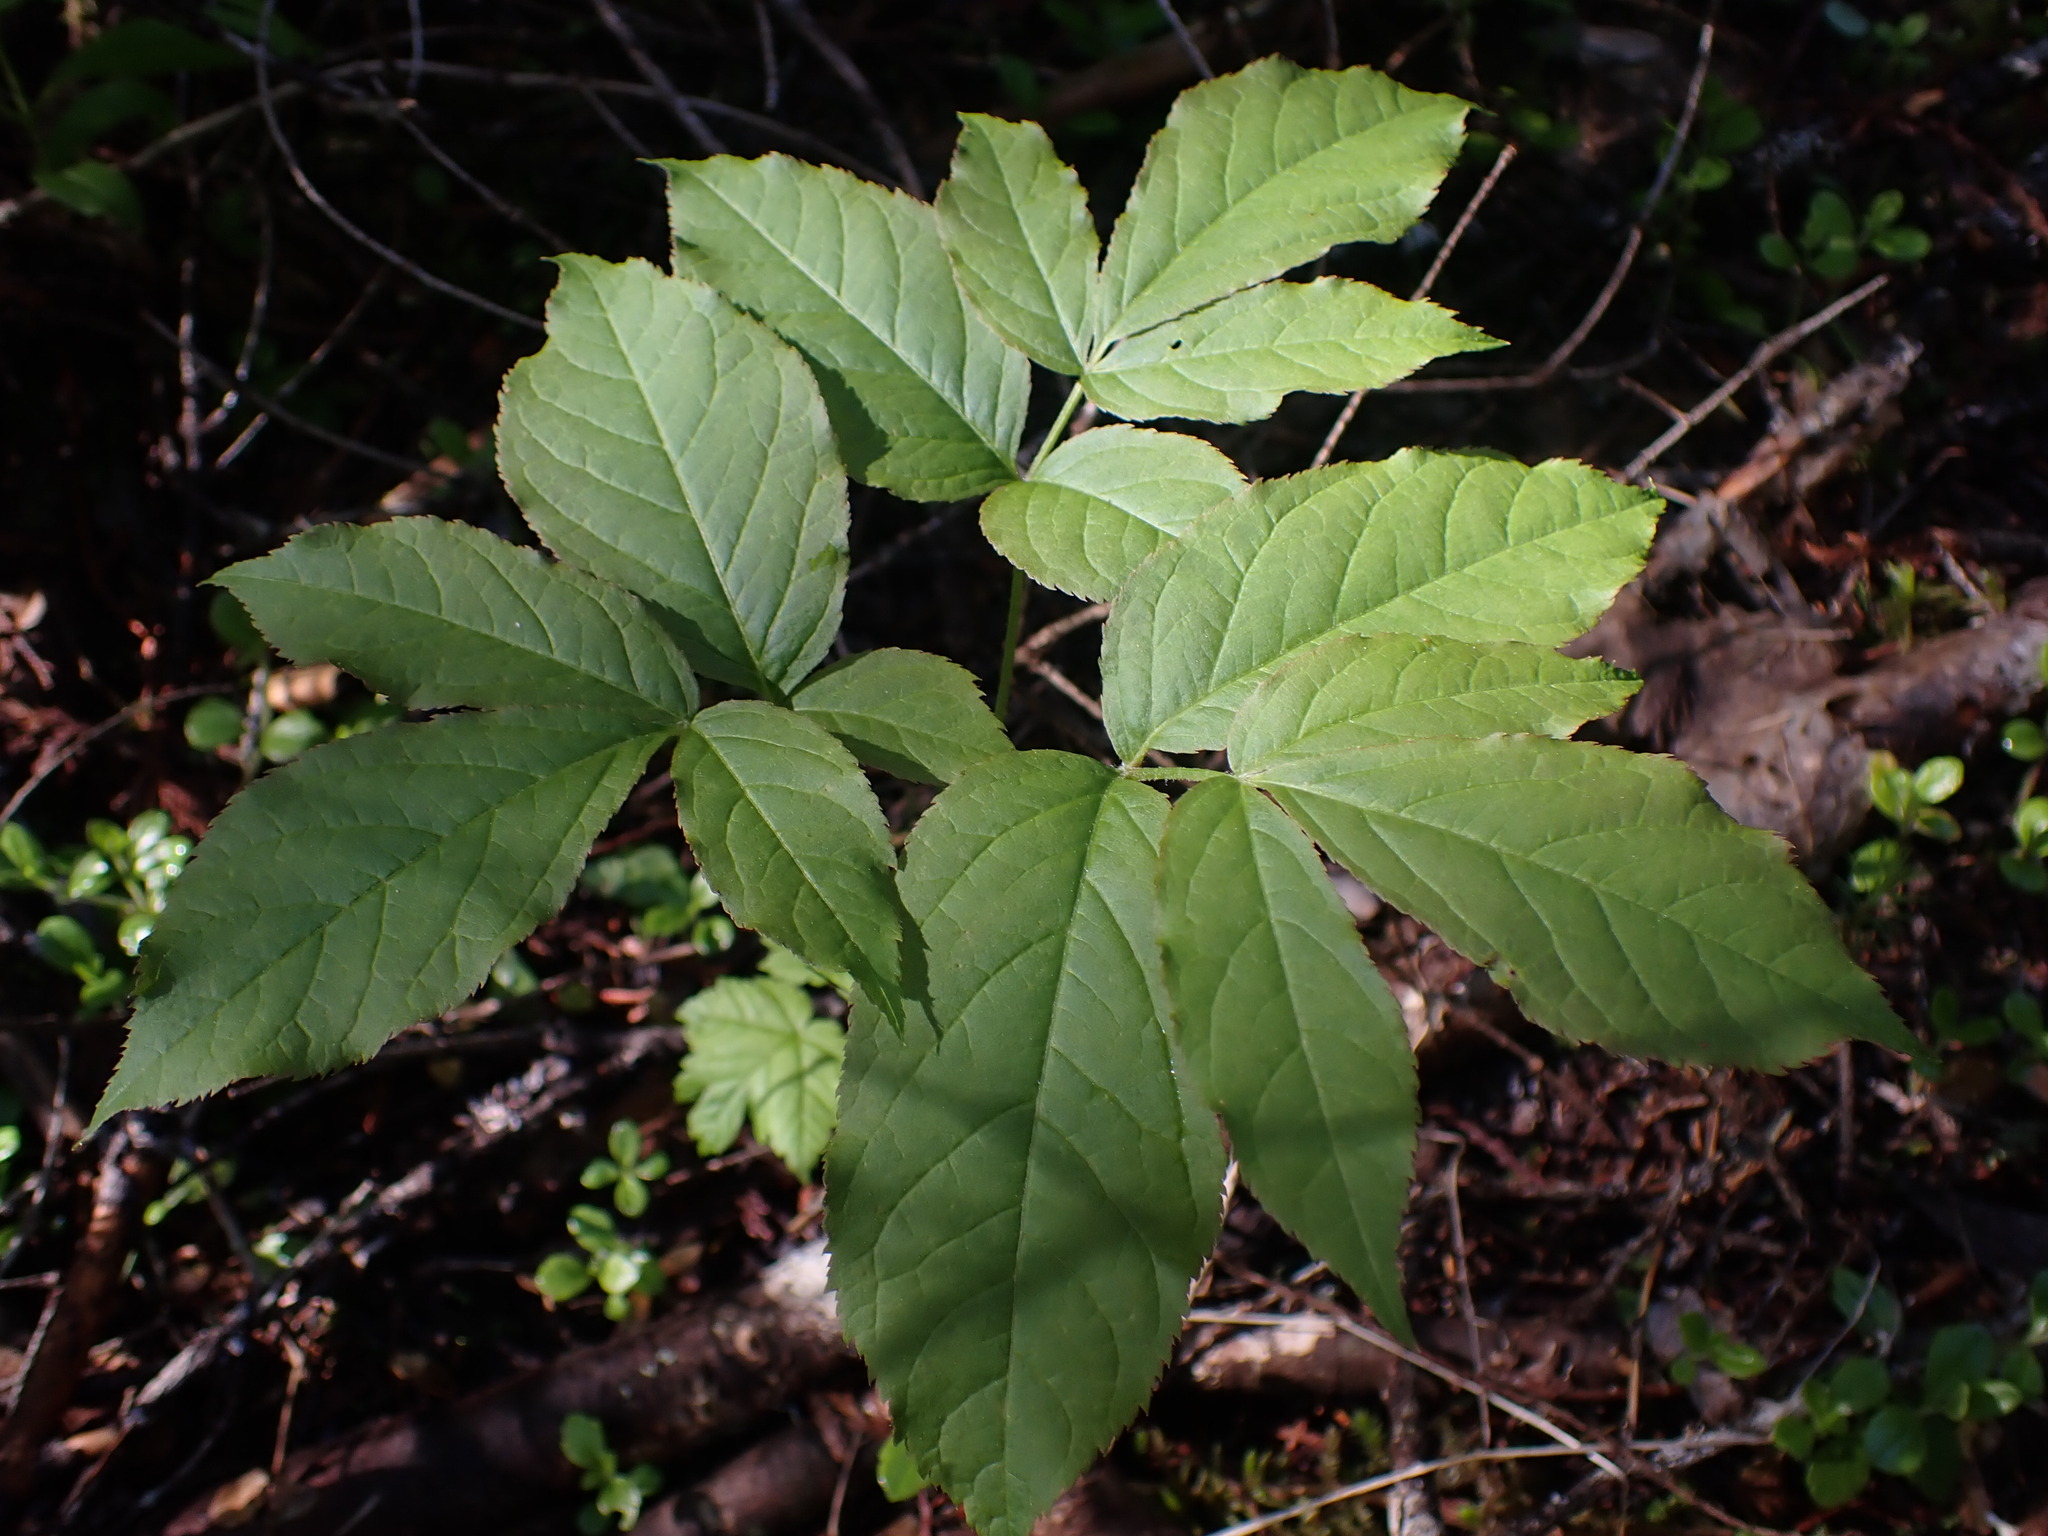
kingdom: Plantae
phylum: Tracheophyta
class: Magnoliopsida
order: Apiales
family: Araliaceae
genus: Aralia
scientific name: Aralia nudicaulis
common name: Wild sarsaparilla
